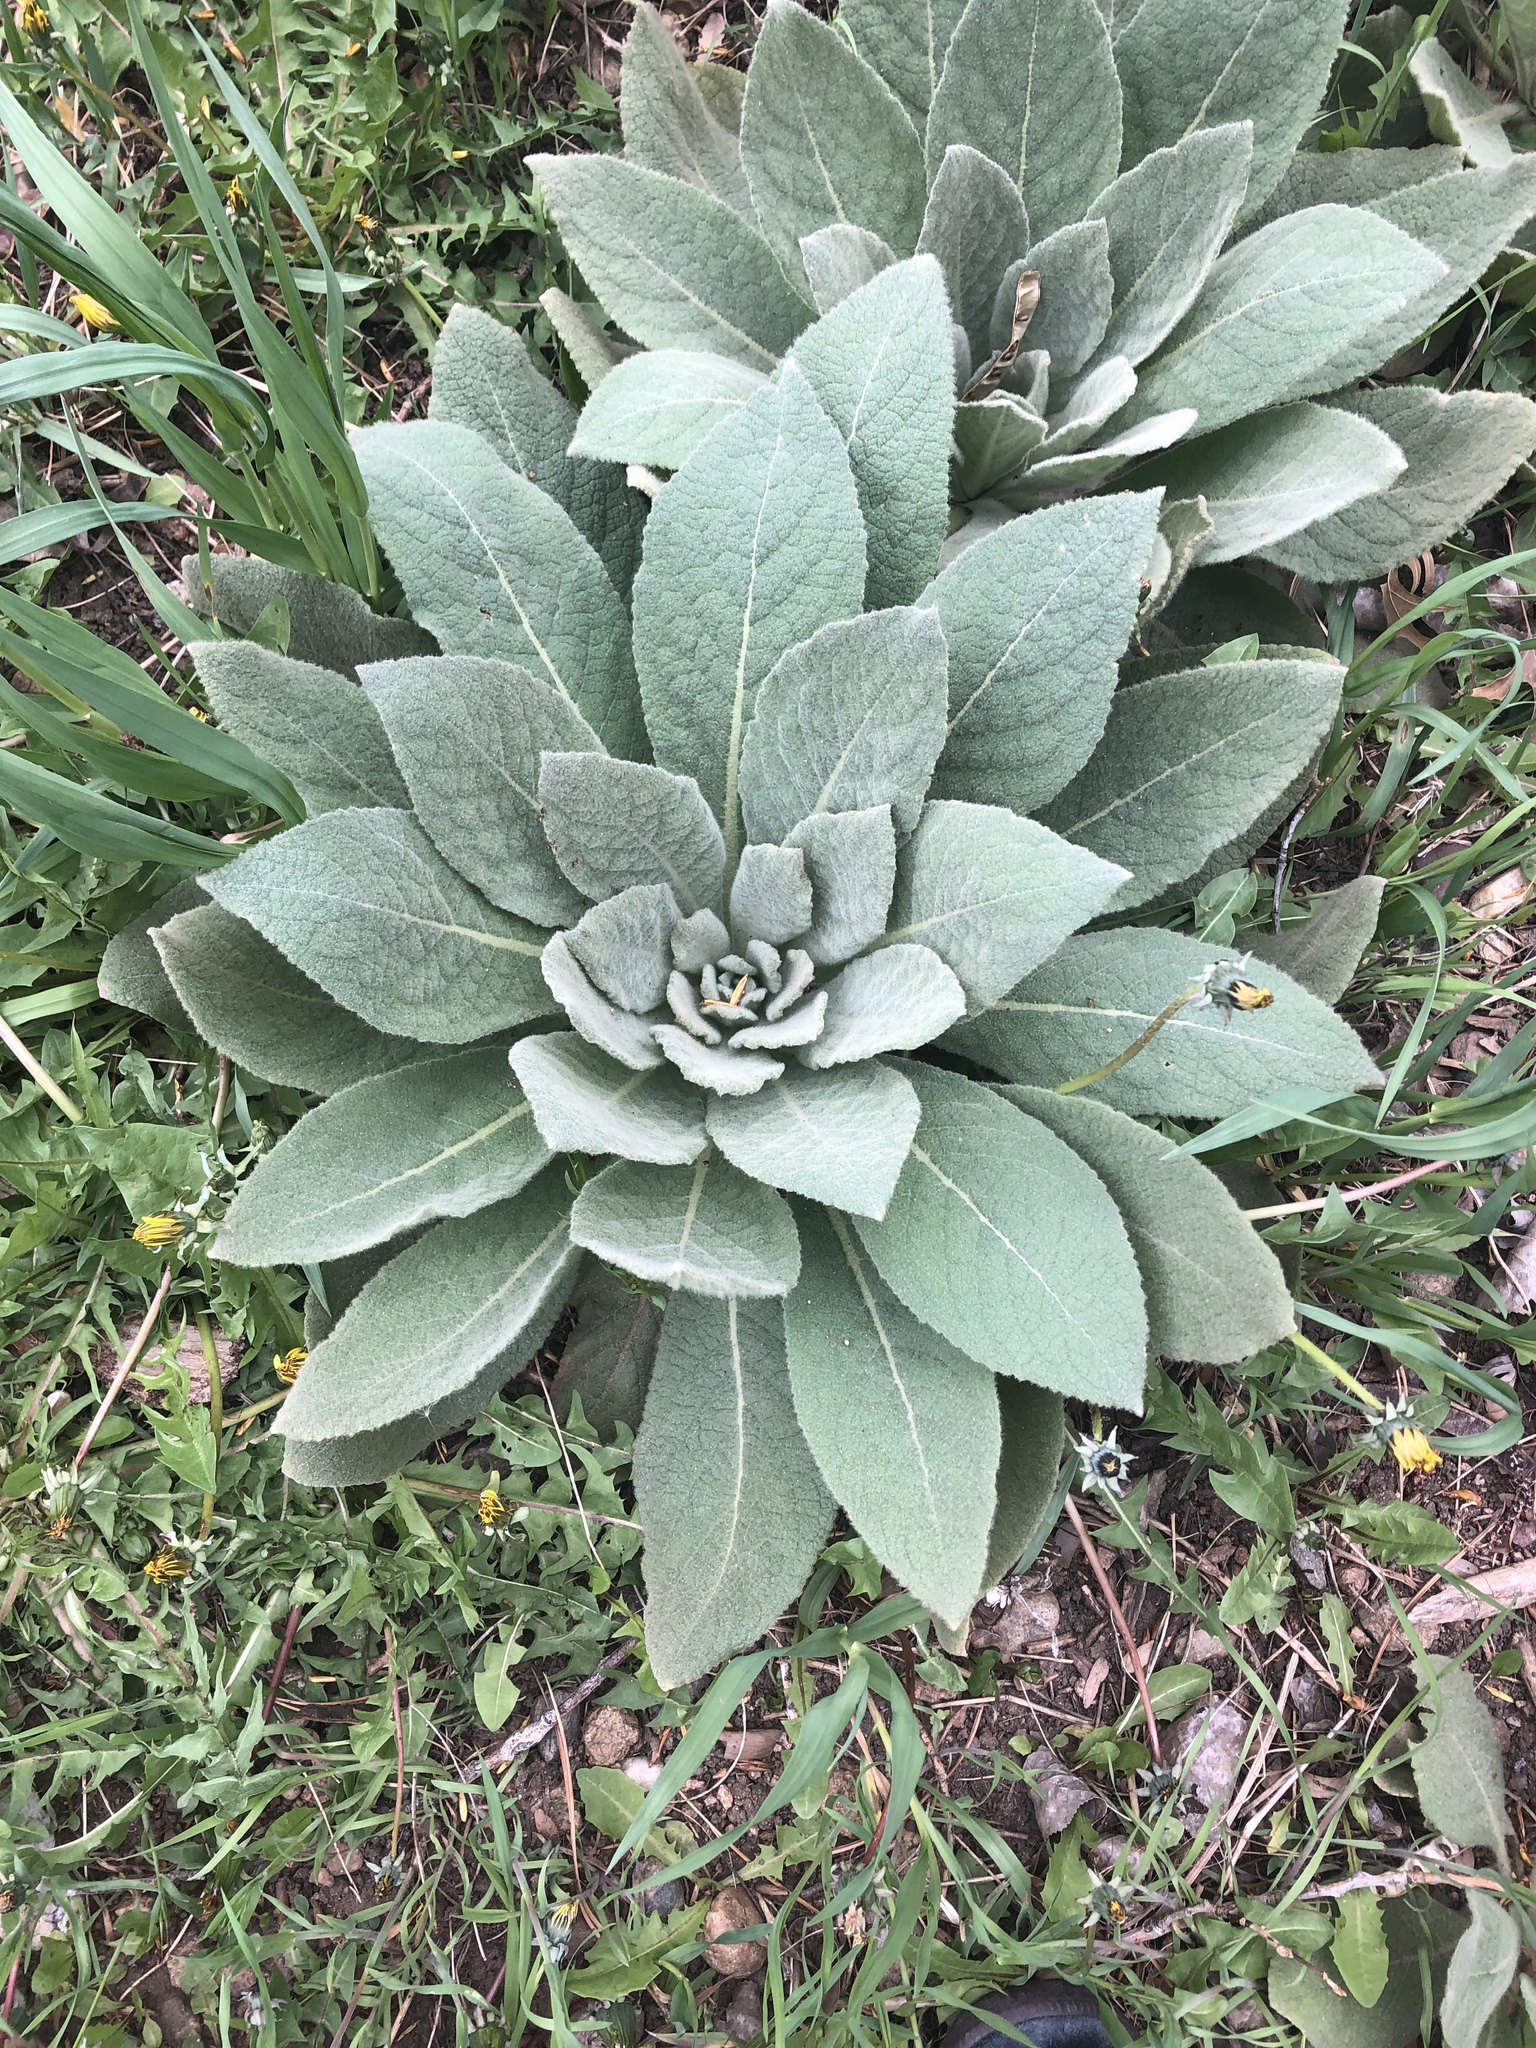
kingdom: Plantae
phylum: Tracheophyta
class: Magnoliopsida
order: Lamiales
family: Scrophulariaceae
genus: Verbascum
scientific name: Verbascum thapsus
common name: Common mullein
